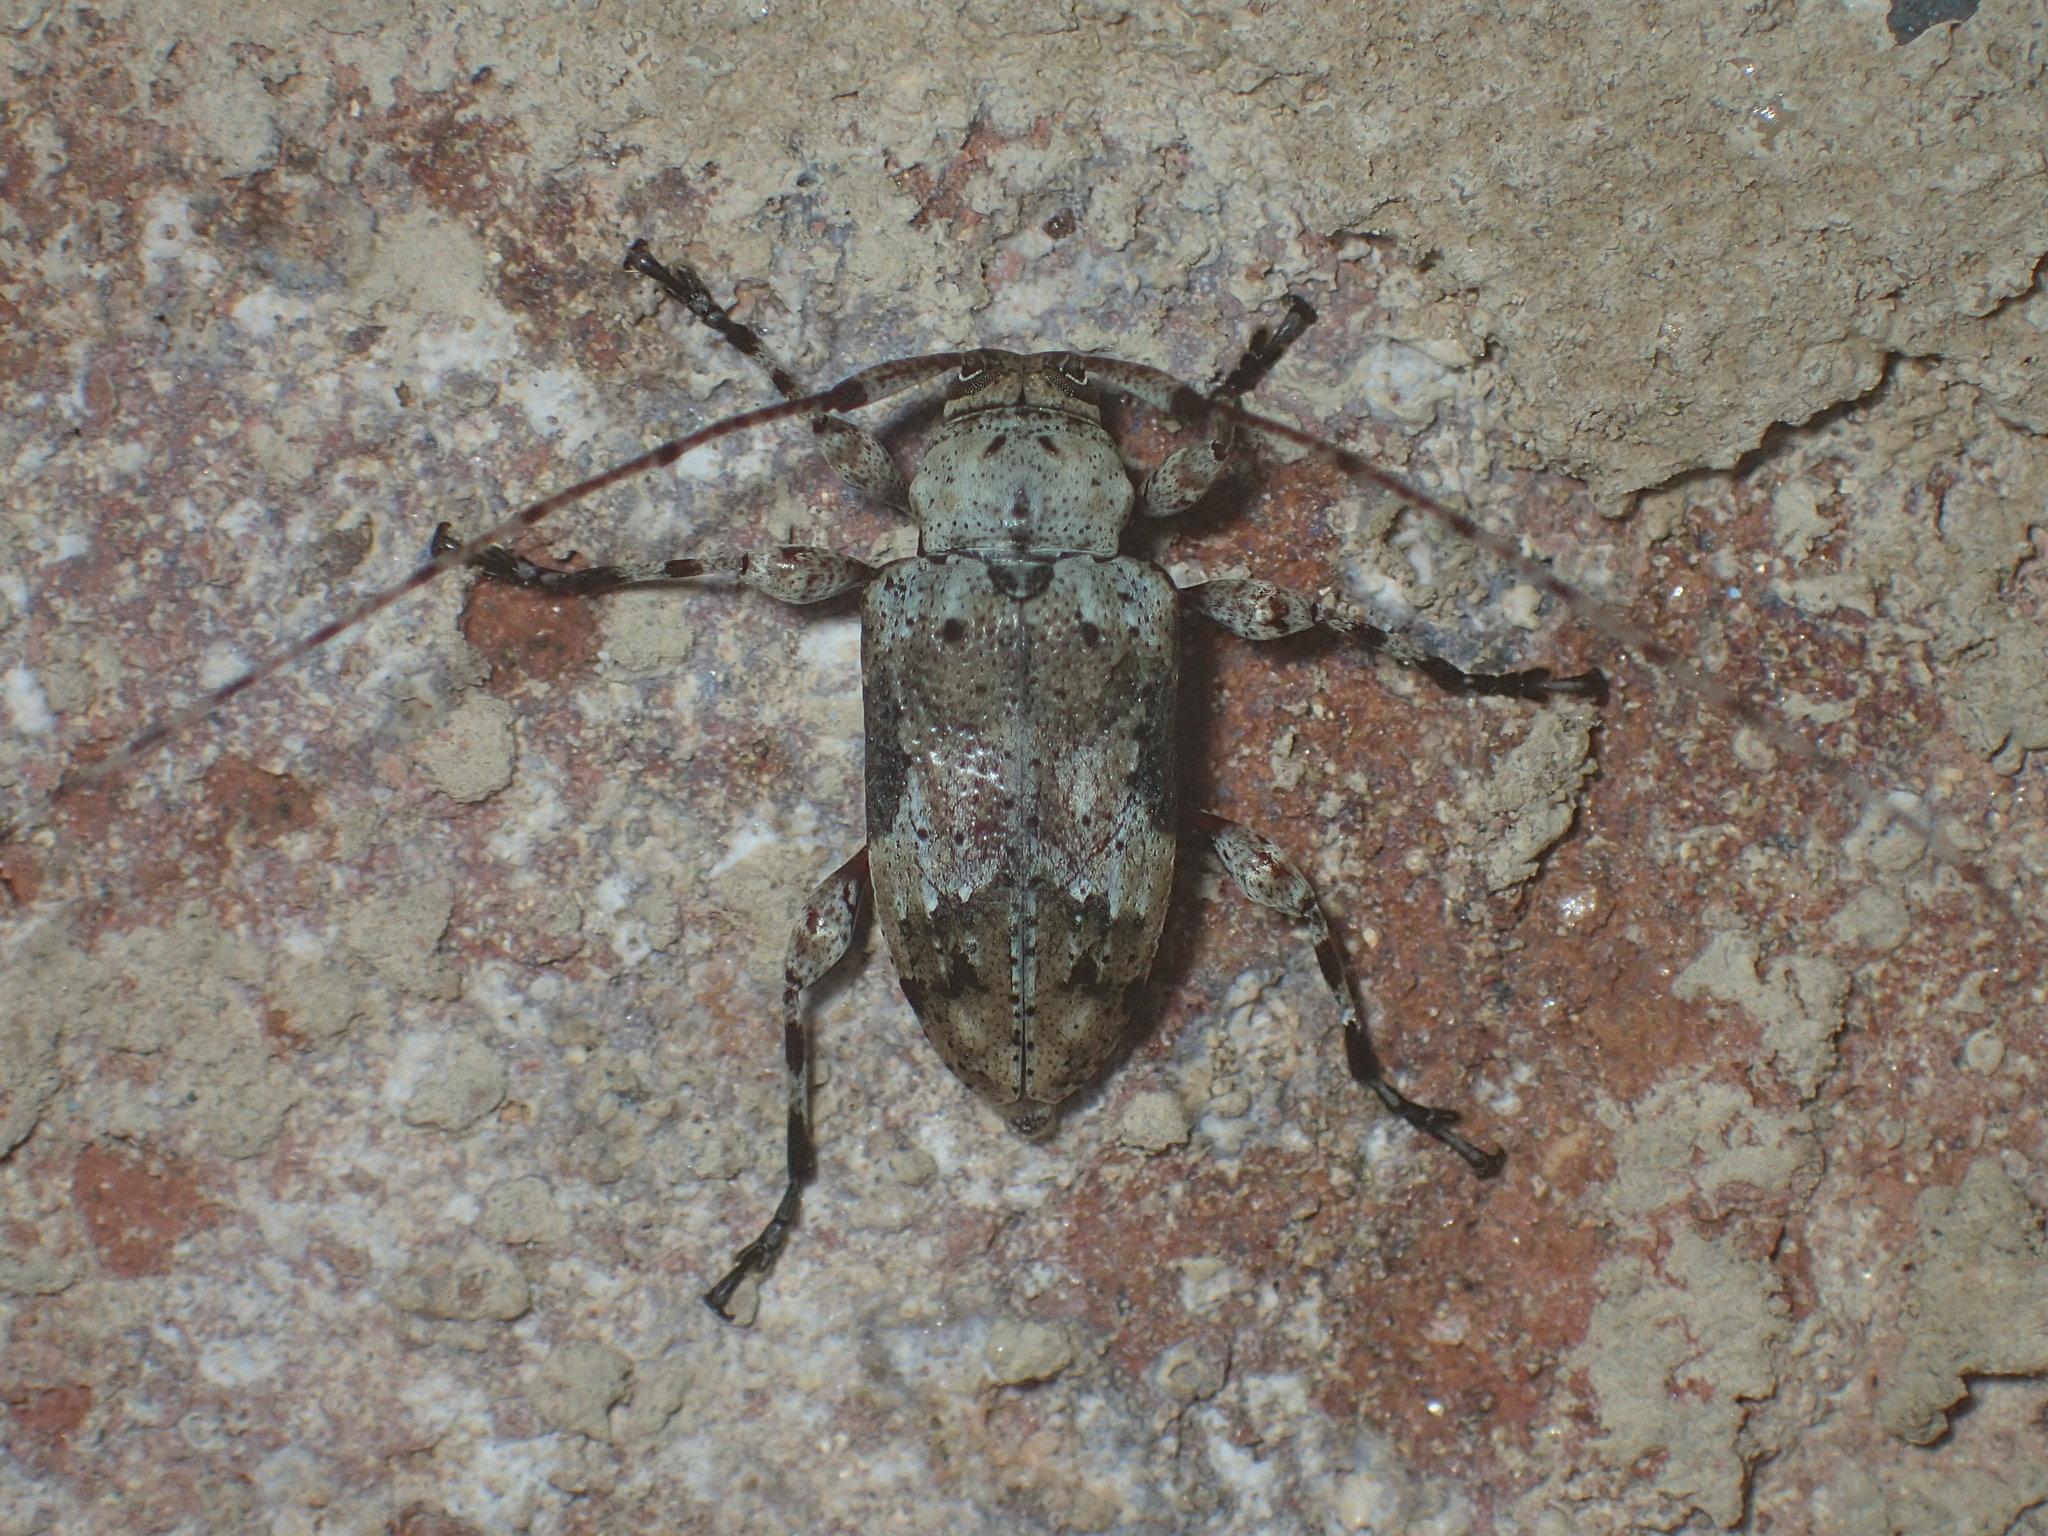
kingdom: Animalia
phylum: Arthropoda
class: Insecta
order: Coleoptera
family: Cerambycidae
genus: Leptostylopsis
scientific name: Leptostylopsis planidorsus
